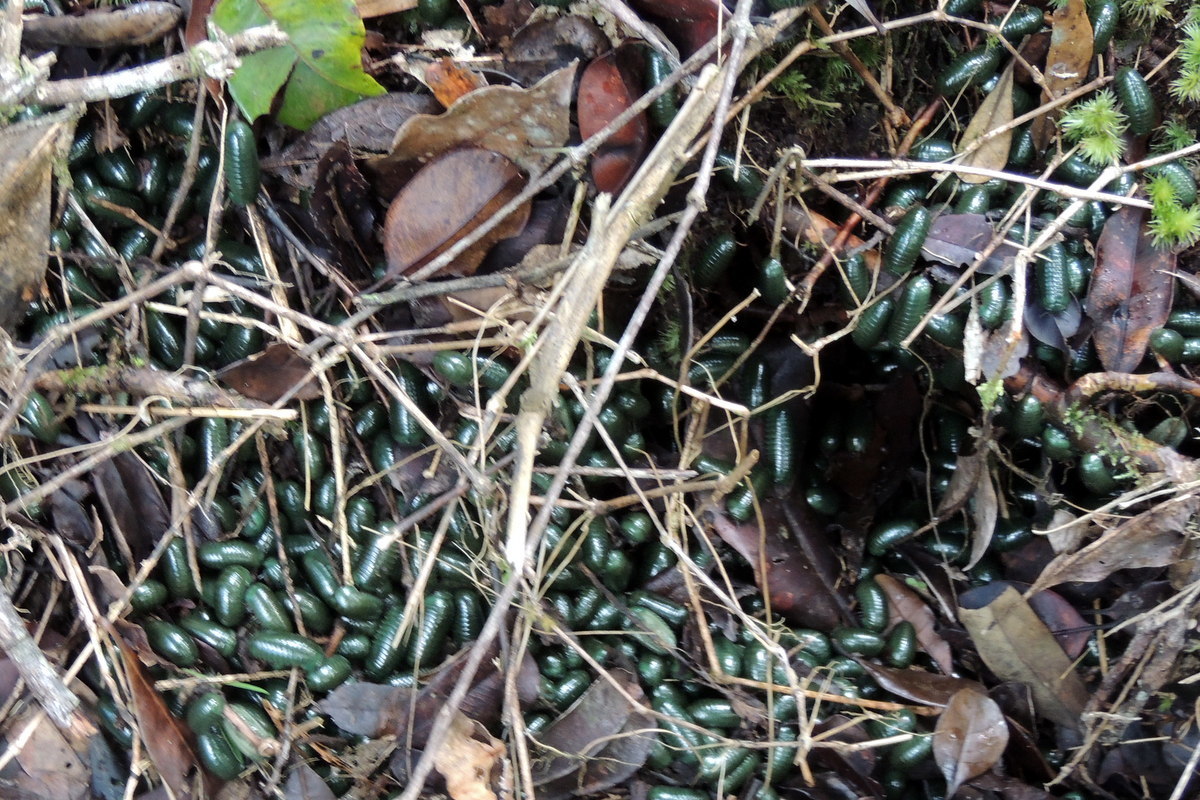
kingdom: Animalia
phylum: Arthropoda
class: Diplopoda
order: Sphaerotheriida
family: Arthrosphaeridae
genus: Zoosphaerium
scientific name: Zoosphaerium neptunus
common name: Emerald green giant pill-millipede
